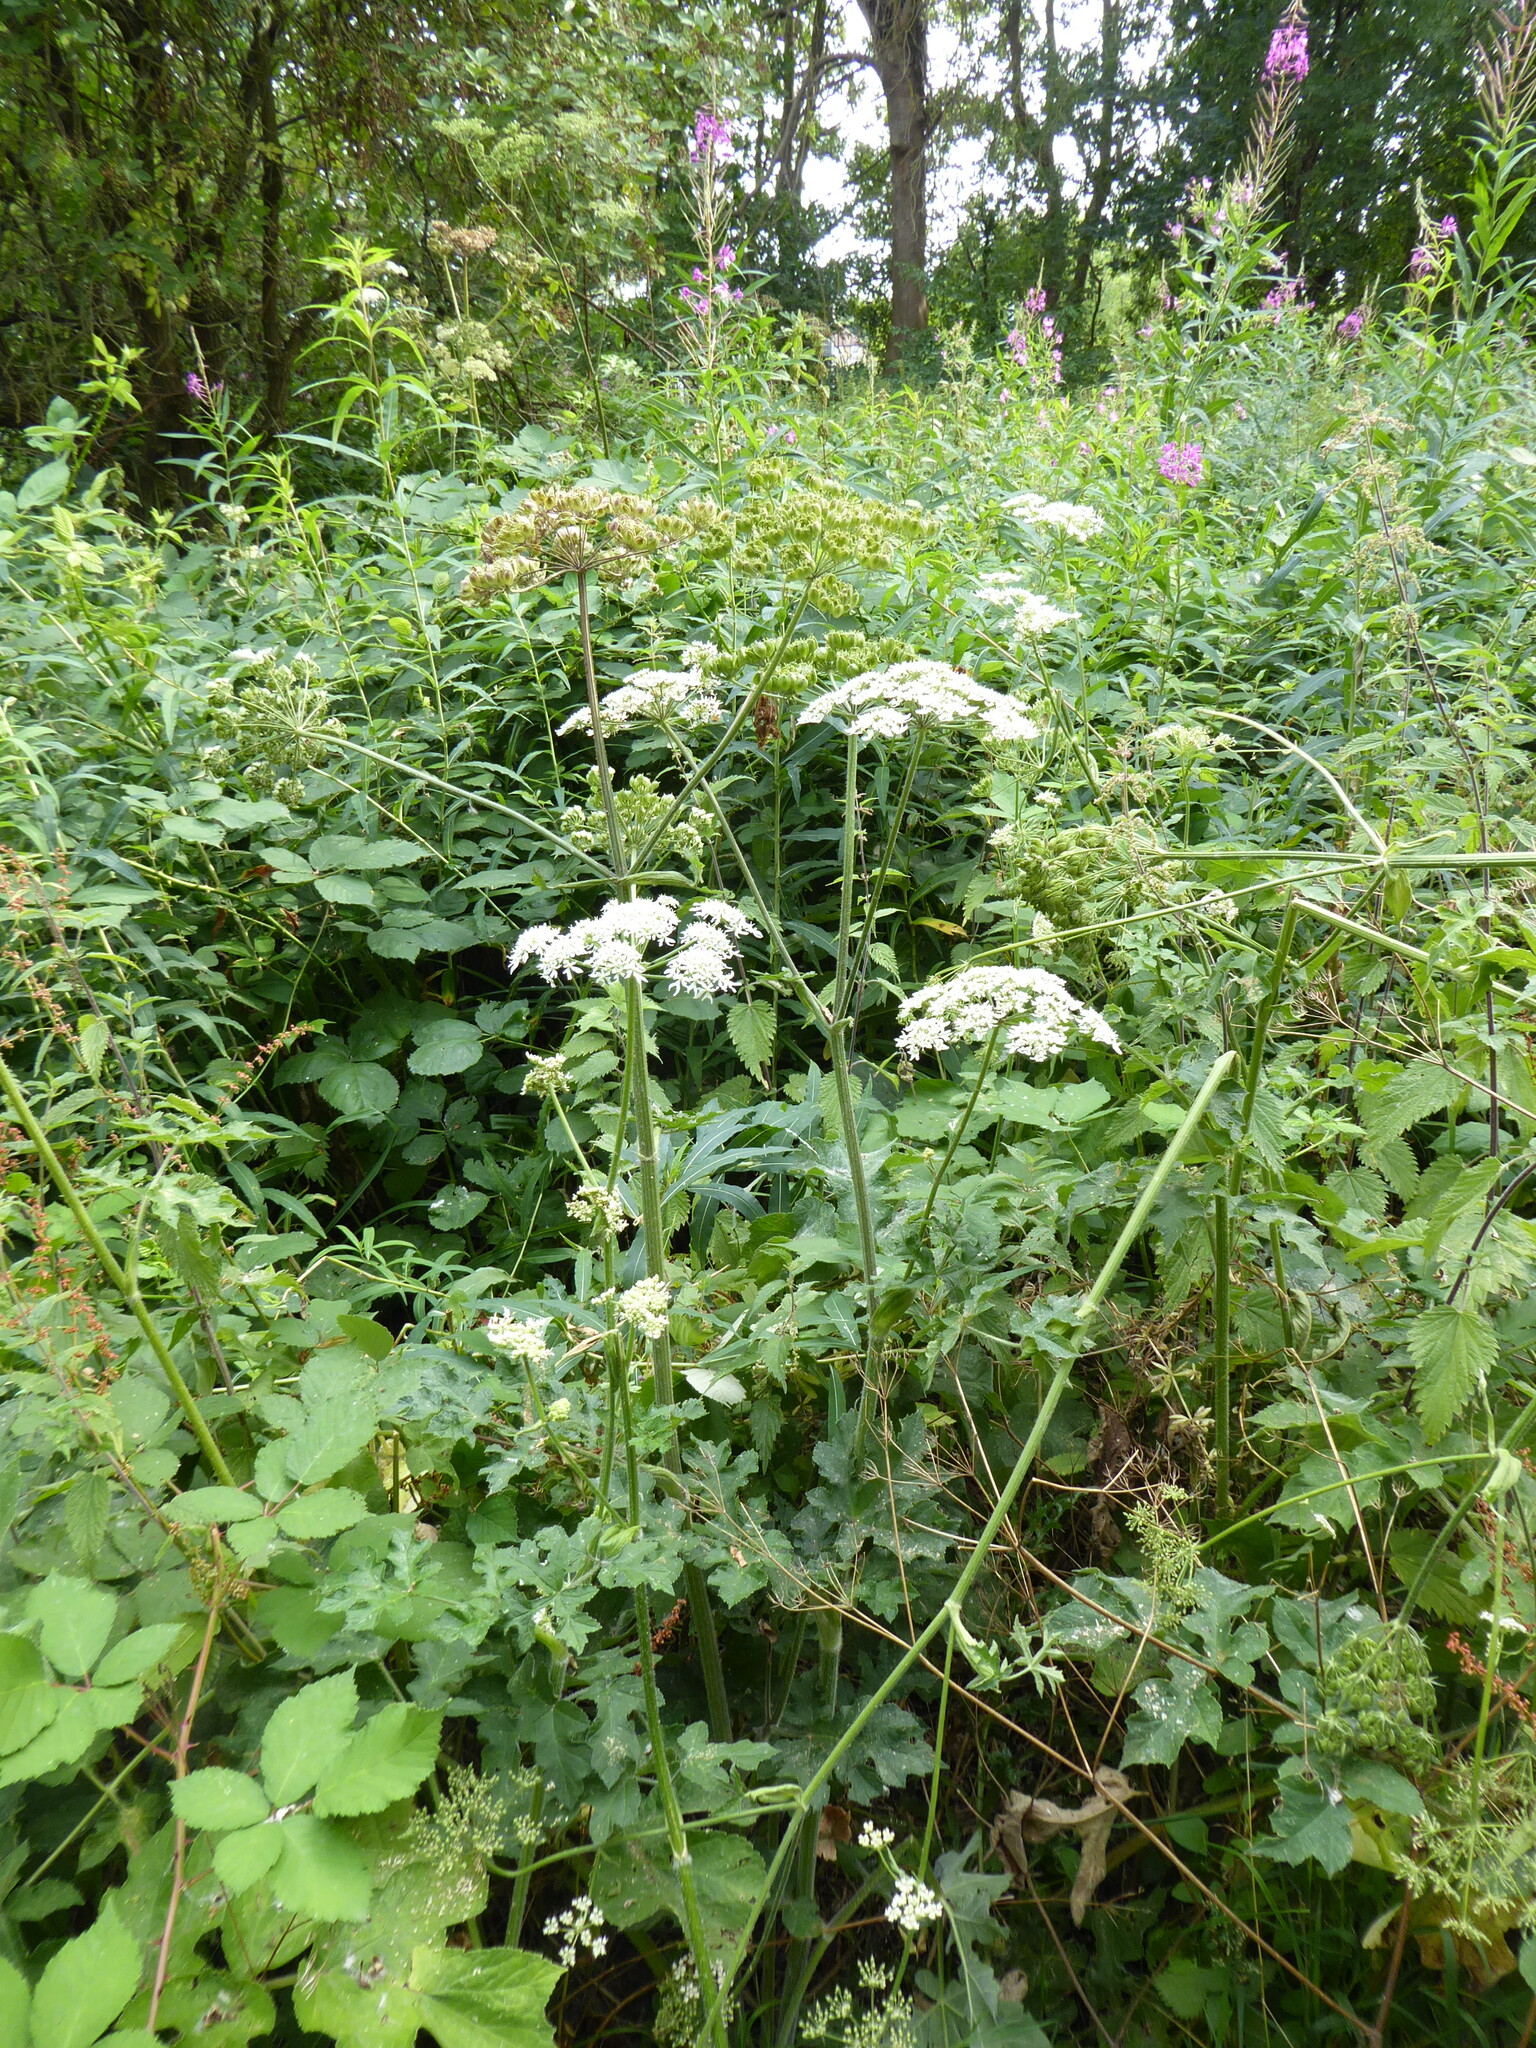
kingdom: Plantae
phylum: Tracheophyta
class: Magnoliopsida
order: Apiales
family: Apiaceae
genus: Heracleum
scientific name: Heracleum sphondylium
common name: Hogweed
